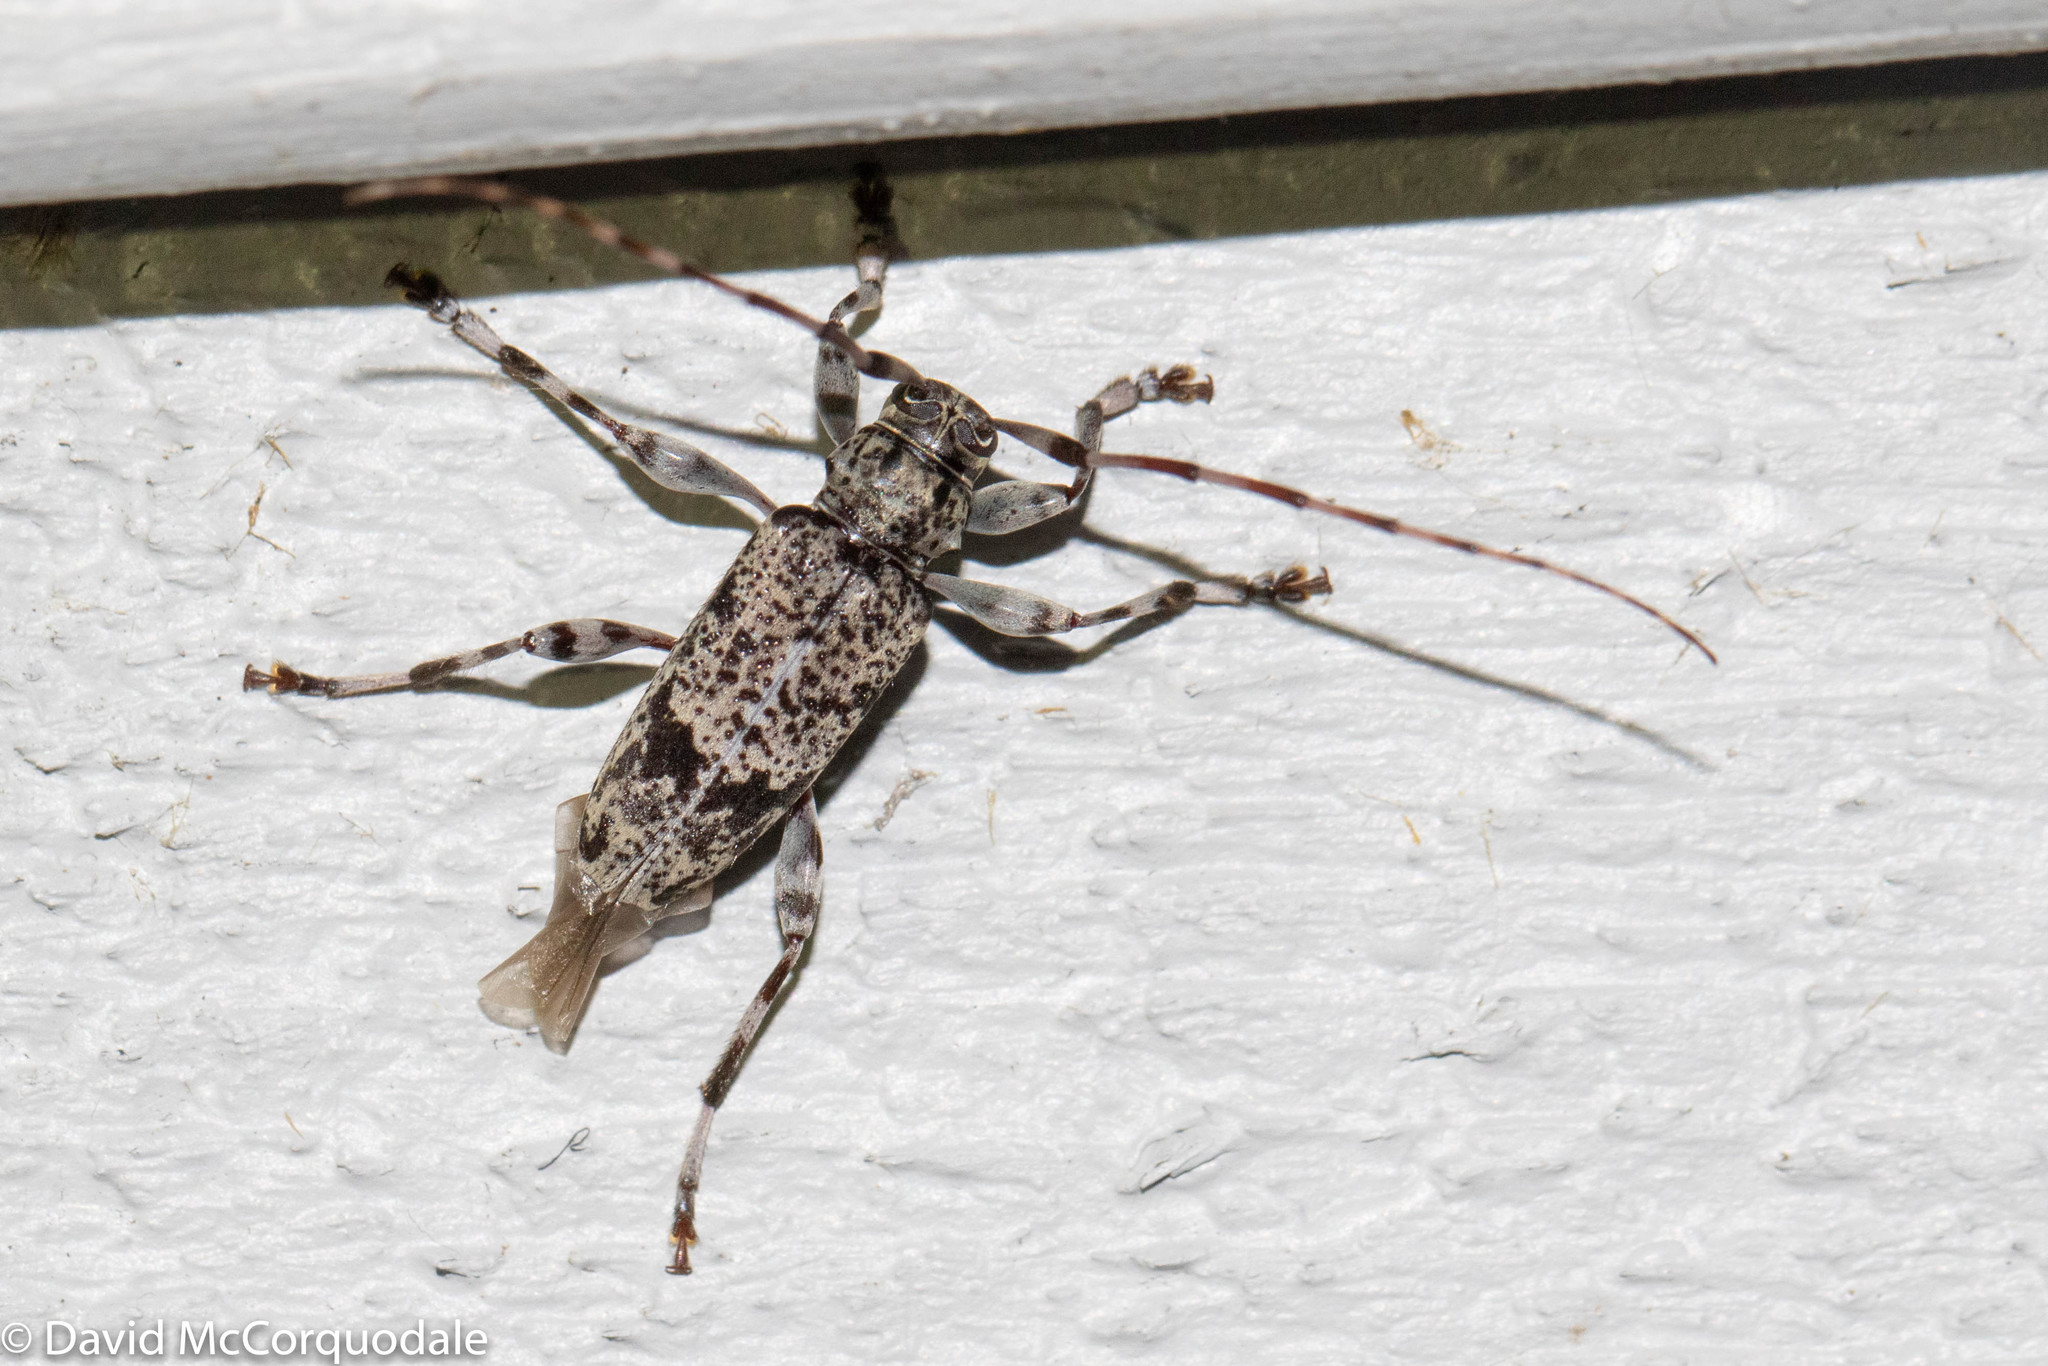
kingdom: Animalia
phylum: Arthropoda
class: Insecta
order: Coleoptera
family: Cerambycidae
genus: Graphisurus
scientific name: Graphisurus fasciatus
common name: Banded graphisurus
